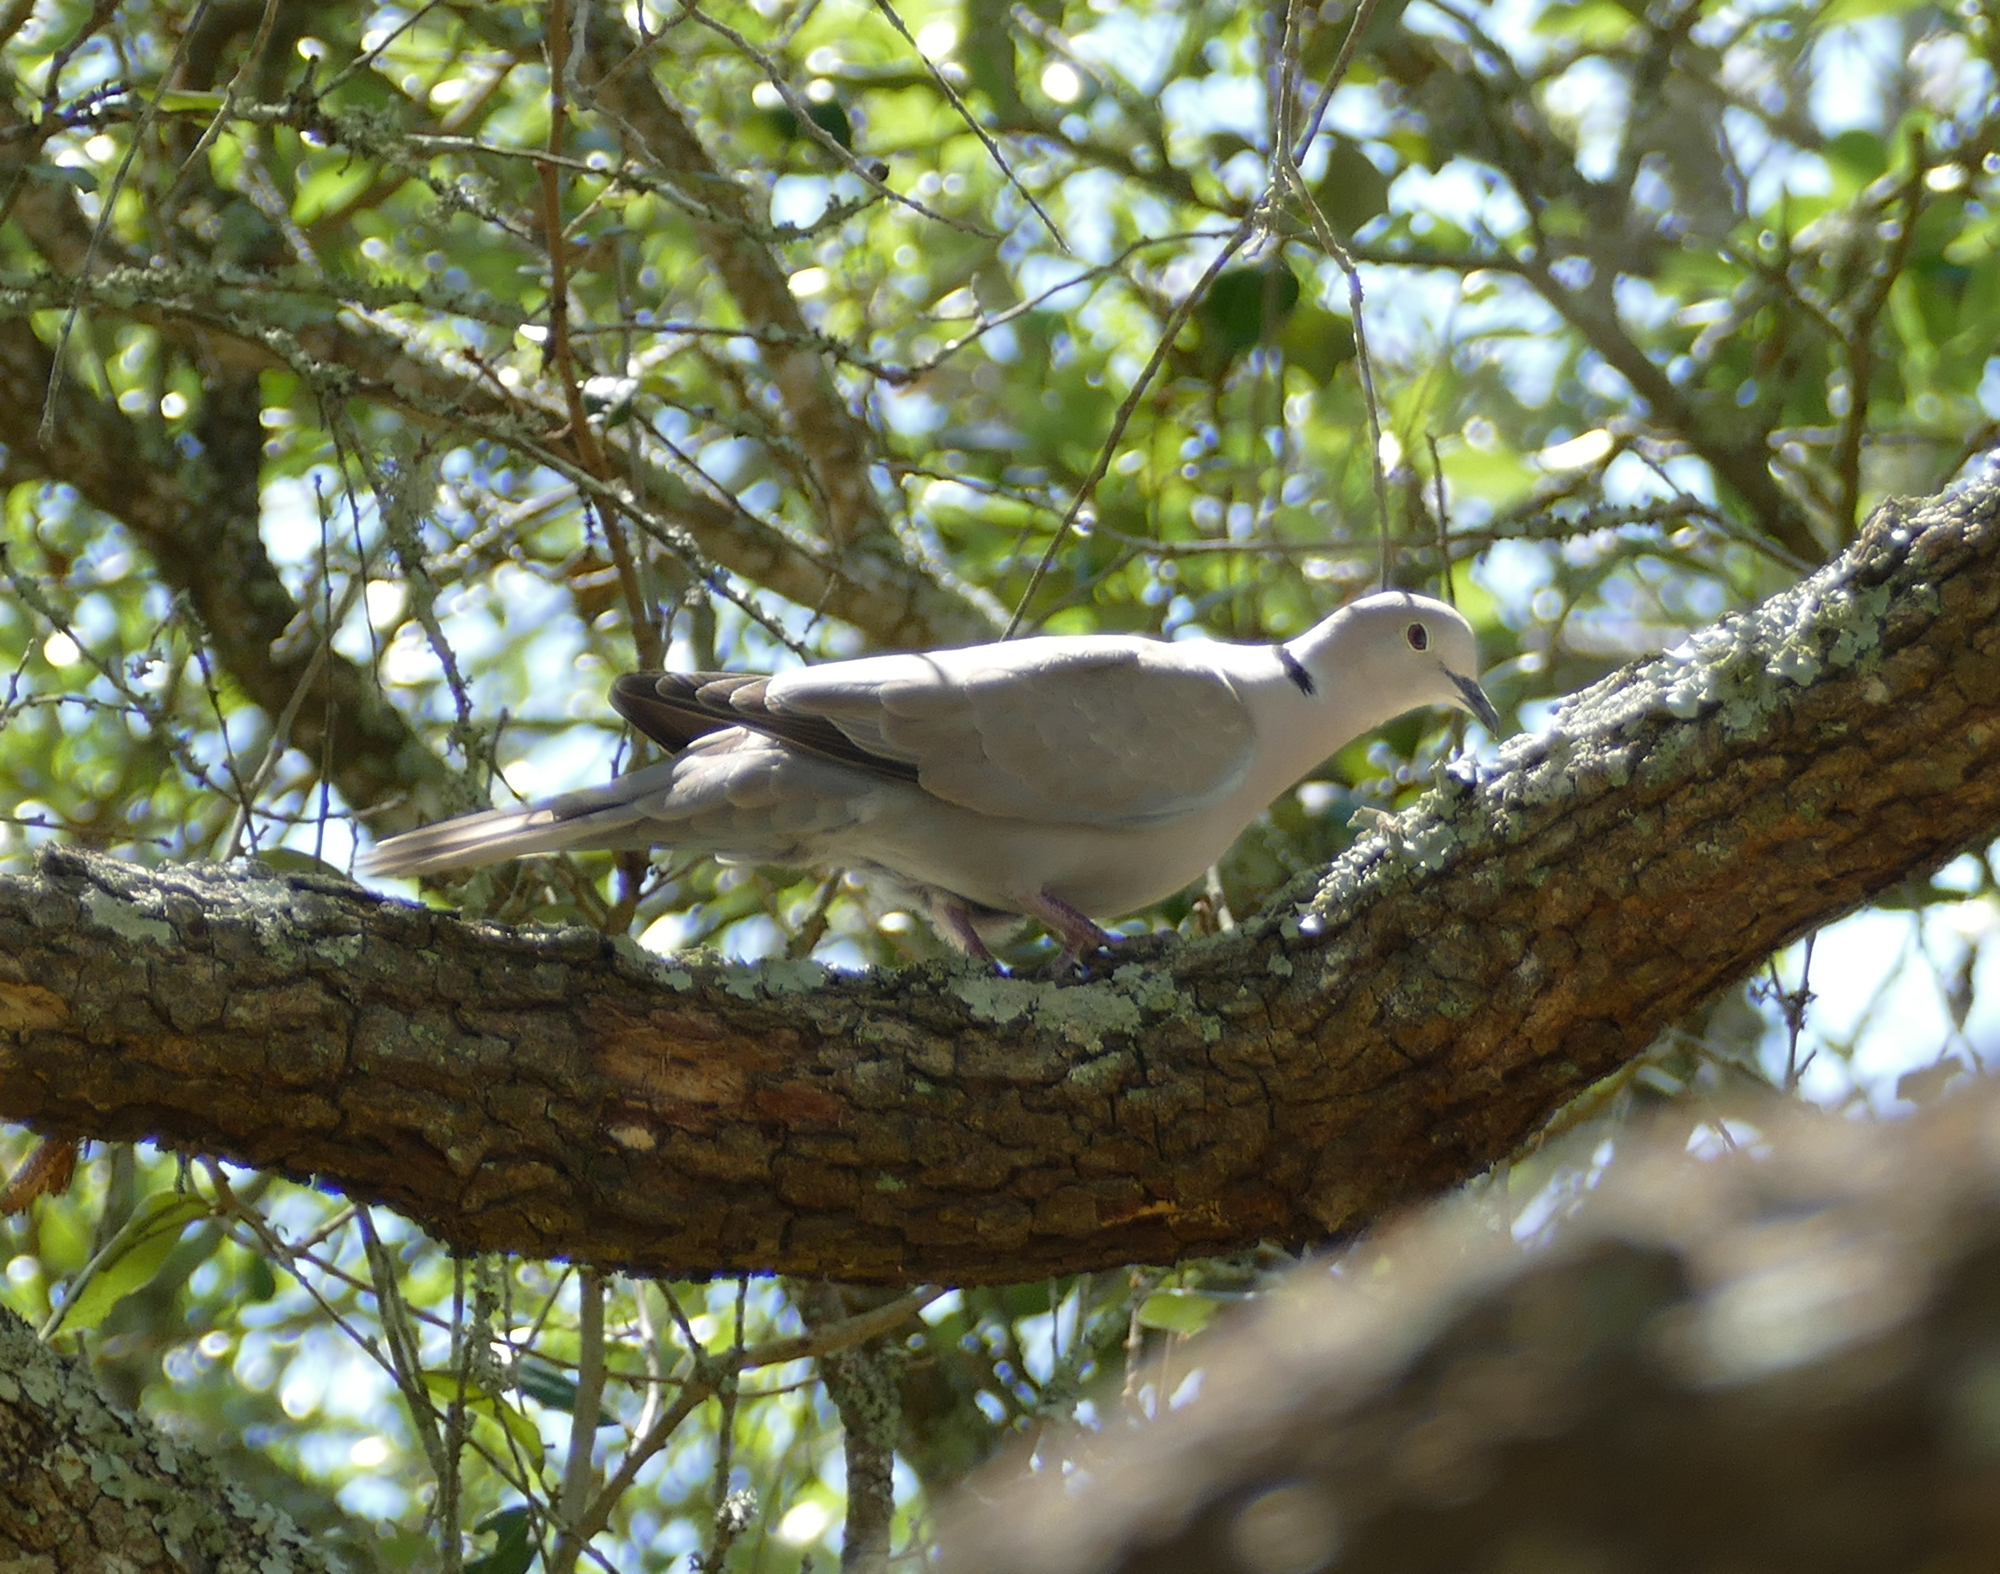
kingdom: Animalia
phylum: Chordata
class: Aves
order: Columbiformes
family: Columbidae
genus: Streptopelia
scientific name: Streptopelia decaocto
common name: Eurasian collared dove
